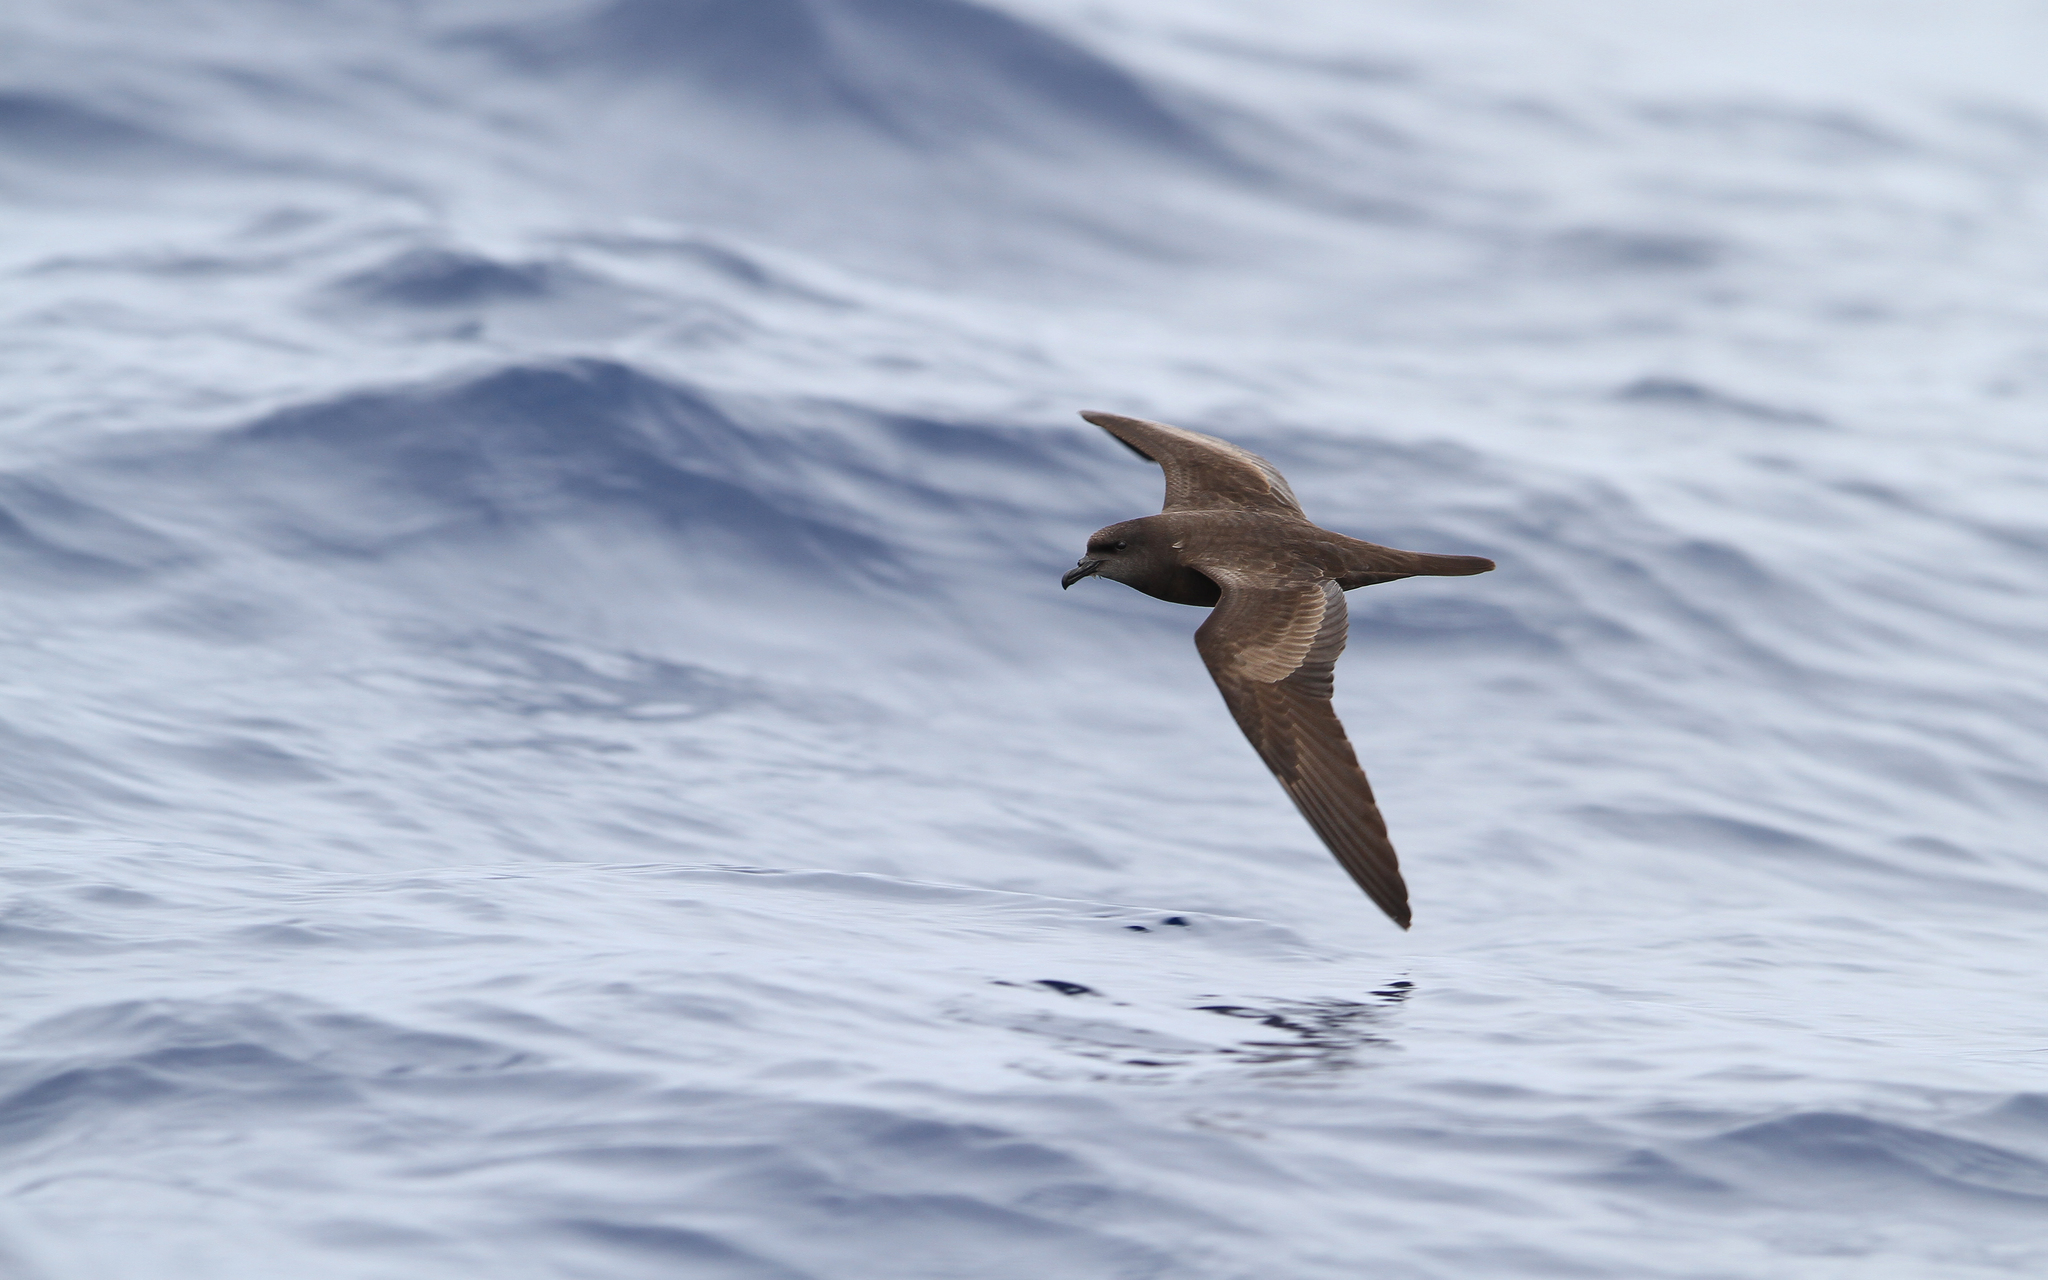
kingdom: Animalia
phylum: Chordata
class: Aves
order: Procellariiformes
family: Procellariidae
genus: Bulweria
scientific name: Bulweria bulwerii
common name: Bulwer's petrel
